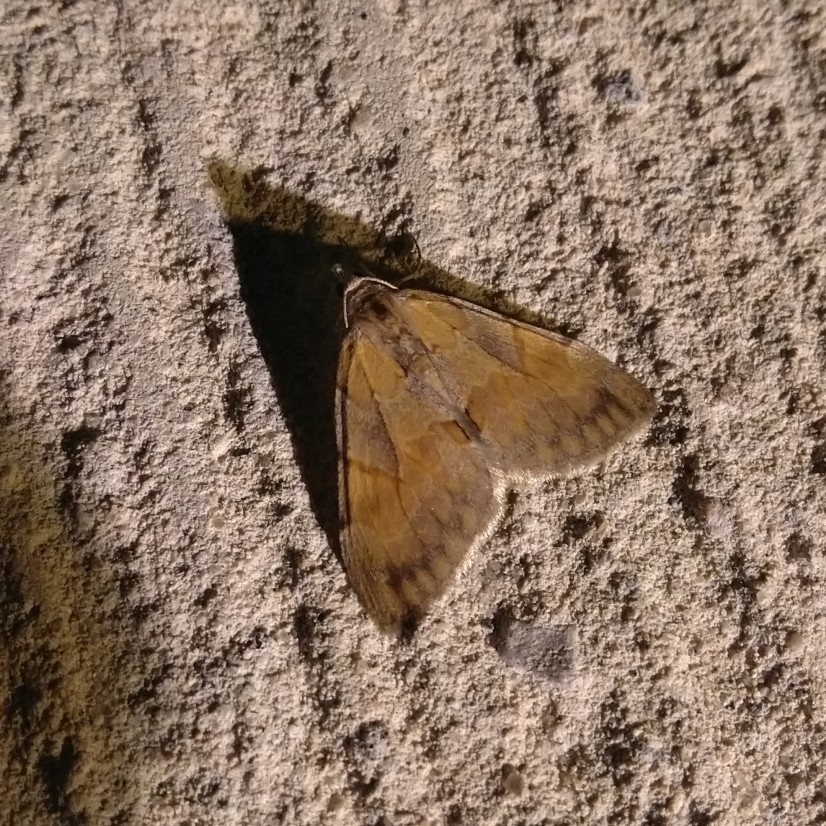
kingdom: Animalia
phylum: Arthropoda
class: Insecta
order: Lepidoptera
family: Geometridae
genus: Pennithera
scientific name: Pennithera firmata
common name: Pine carpet
